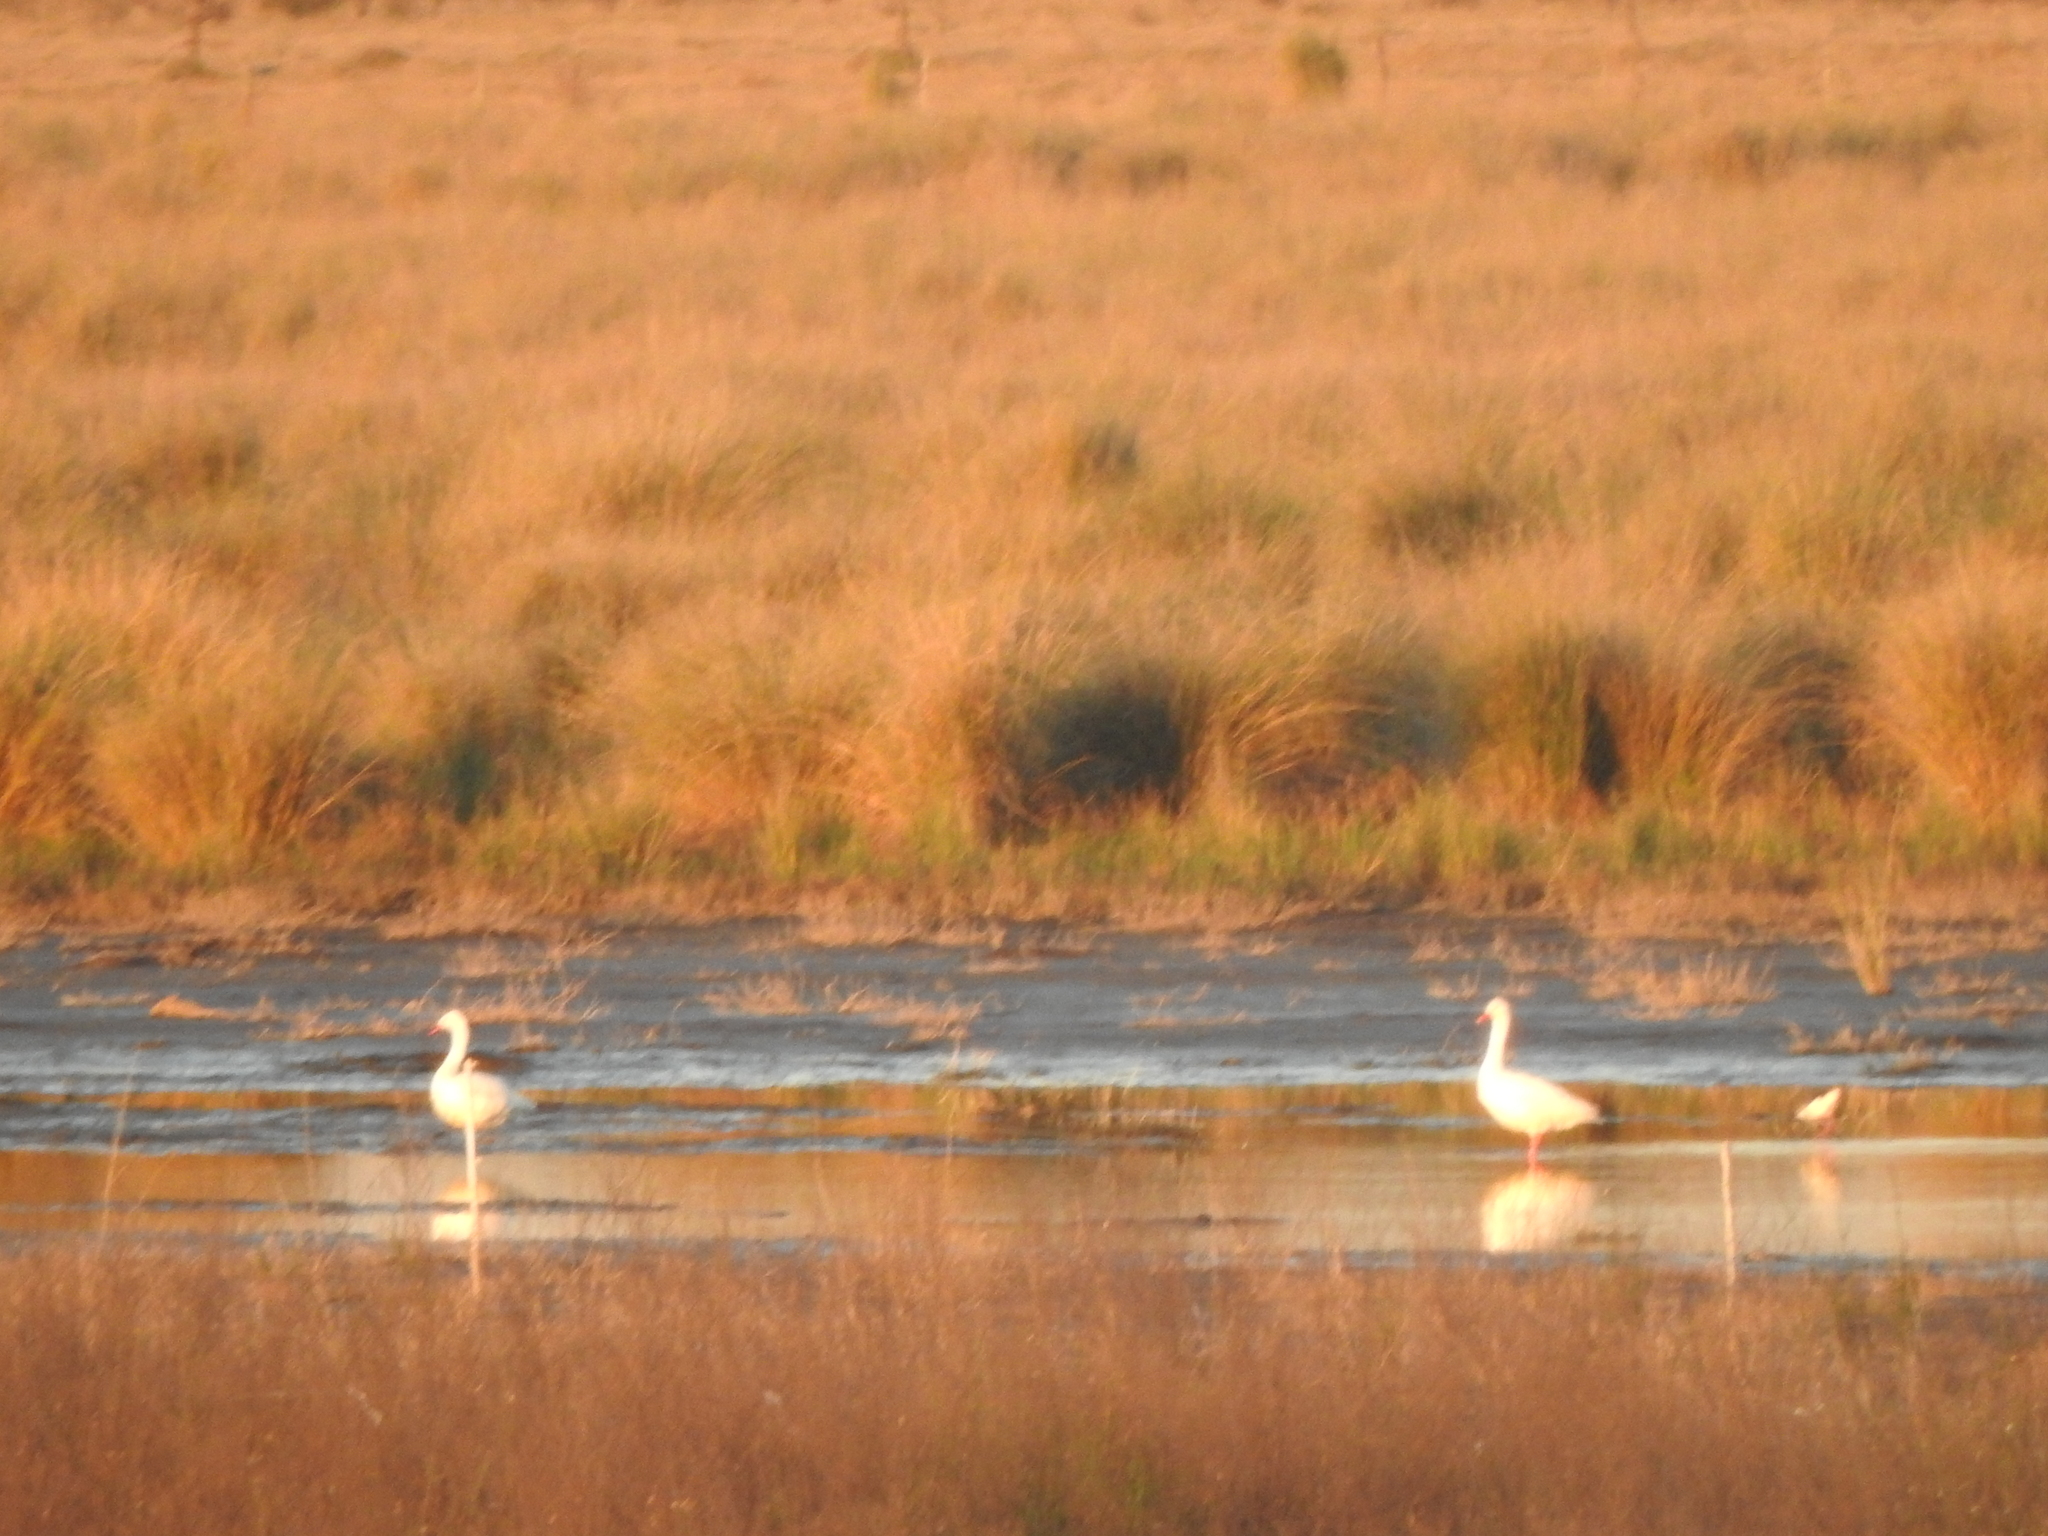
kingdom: Animalia
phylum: Chordata
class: Aves
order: Anseriformes
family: Anatidae
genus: Coscoroba
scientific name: Coscoroba coscoroba
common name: Coscoroba swan
